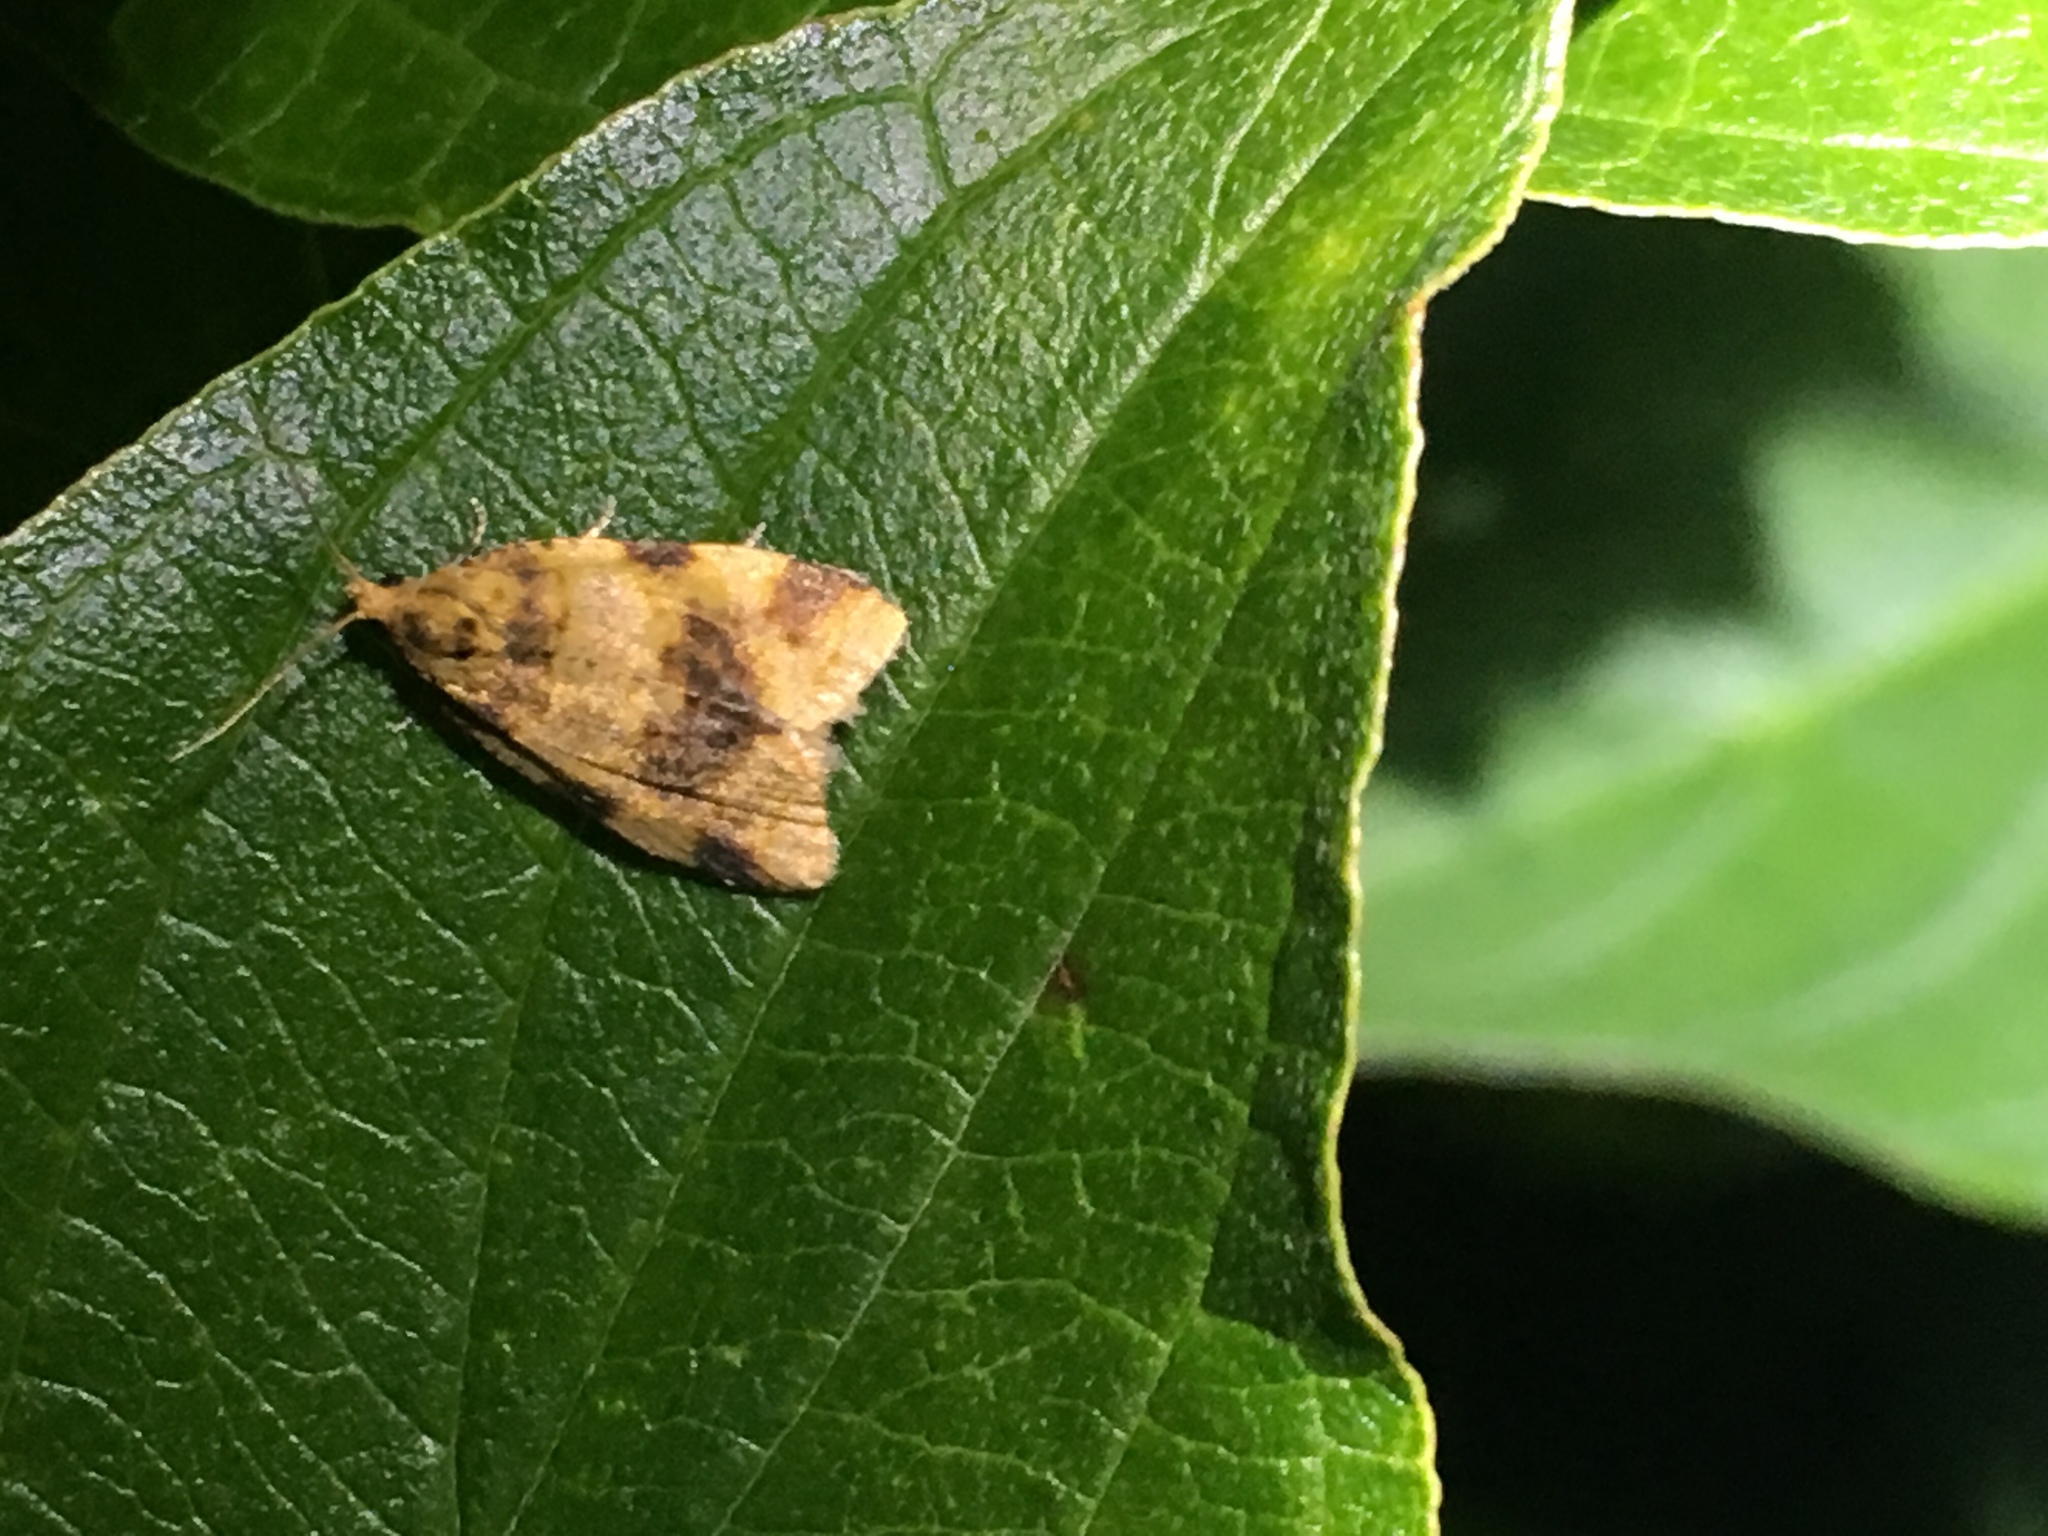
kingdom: Animalia
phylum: Arthropoda
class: Insecta
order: Lepidoptera
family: Tortricidae
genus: Epagoge
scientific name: Epagoge grotiana
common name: Brown-barred twist
